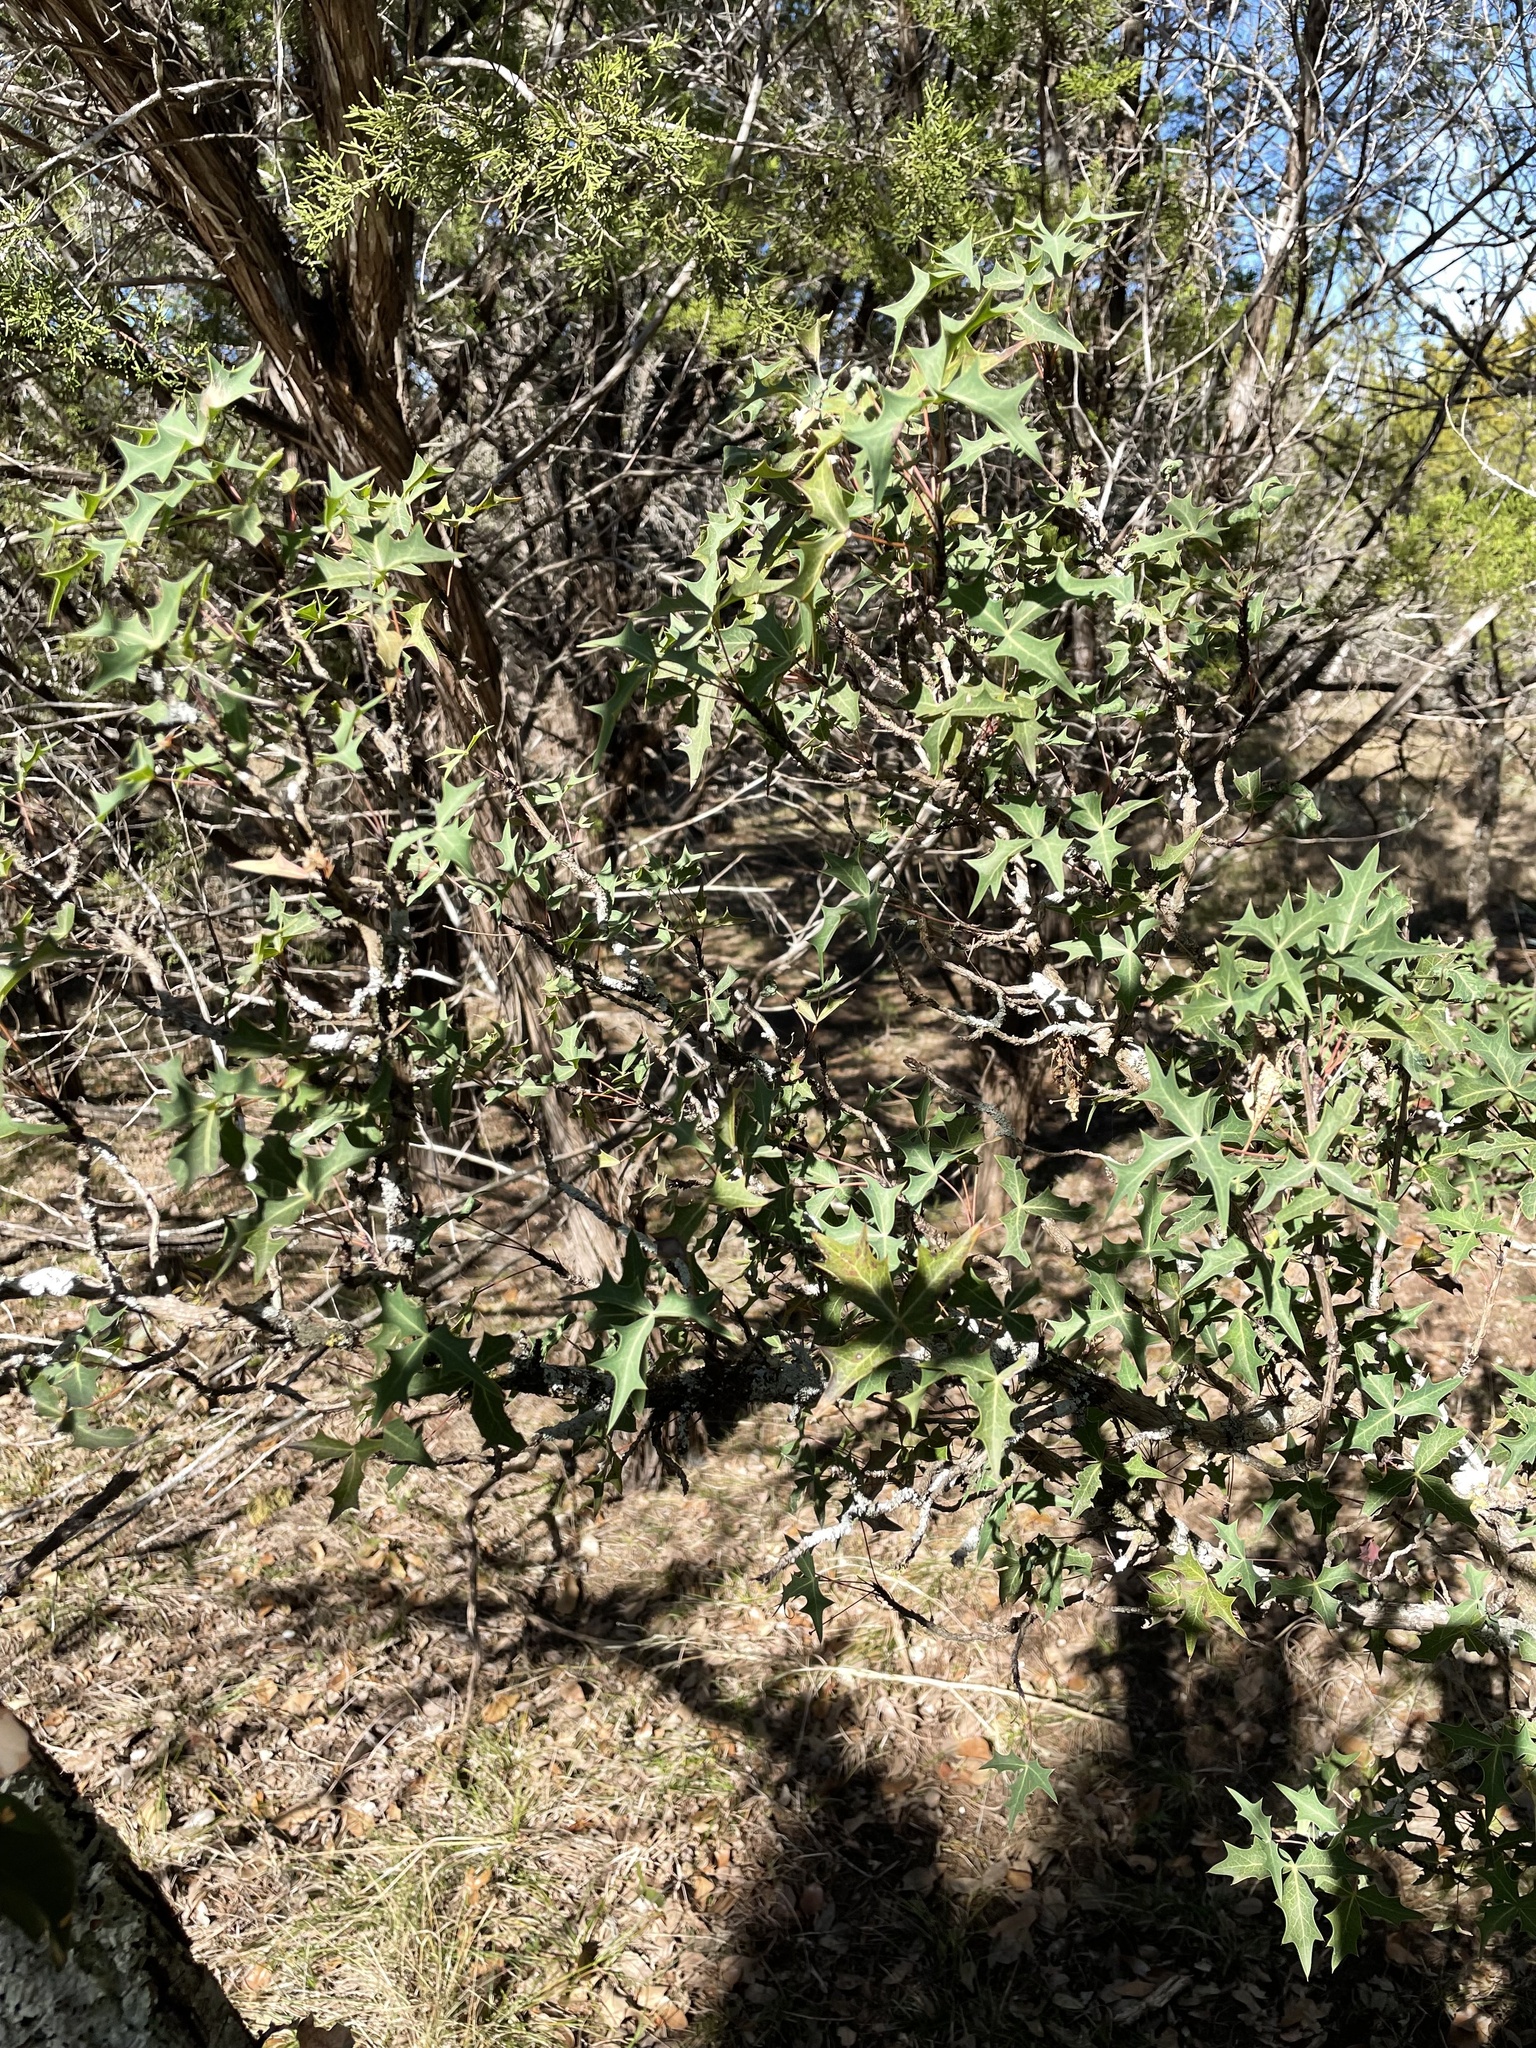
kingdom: Plantae
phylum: Tracheophyta
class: Magnoliopsida
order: Ranunculales
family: Berberidaceae
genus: Alloberberis
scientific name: Alloberberis trifoliolata
